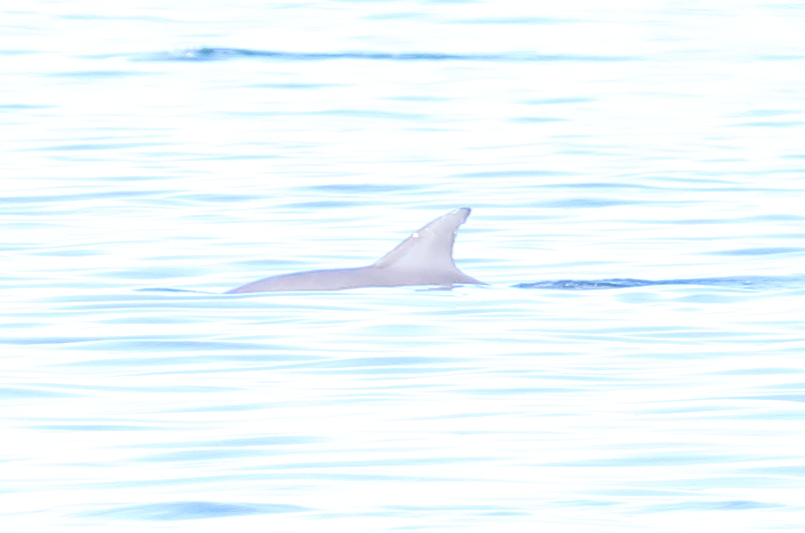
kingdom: Animalia
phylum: Chordata
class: Mammalia
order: Cetacea
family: Delphinidae
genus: Tursiops
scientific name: Tursiops aduncus
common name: Indo-pacific bottlenose dolphin
